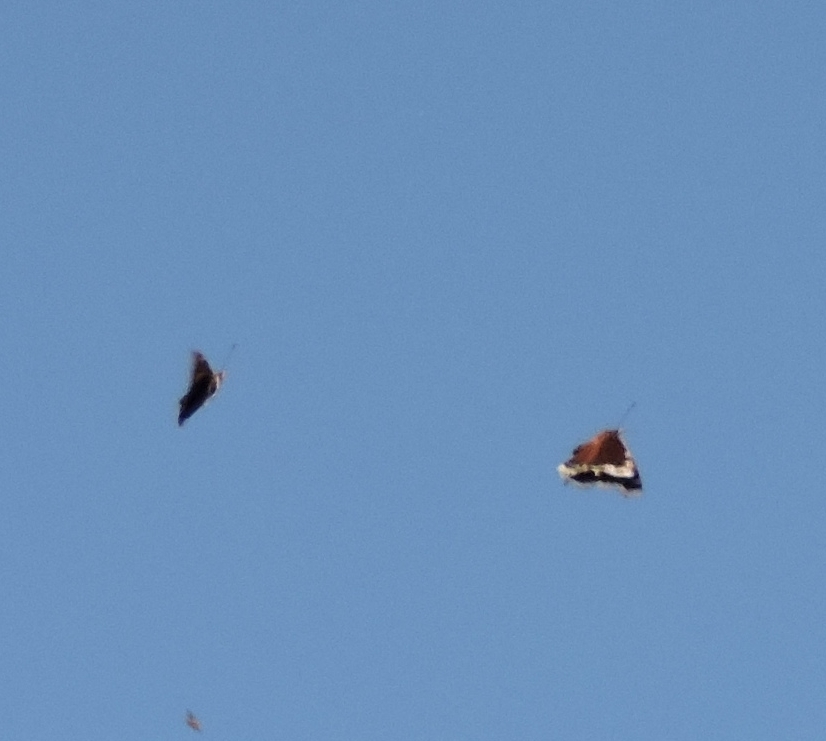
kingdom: Animalia
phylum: Arthropoda
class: Insecta
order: Lepidoptera
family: Nymphalidae
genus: Nymphalis
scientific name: Nymphalis antiopa
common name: Camberwell beauty
